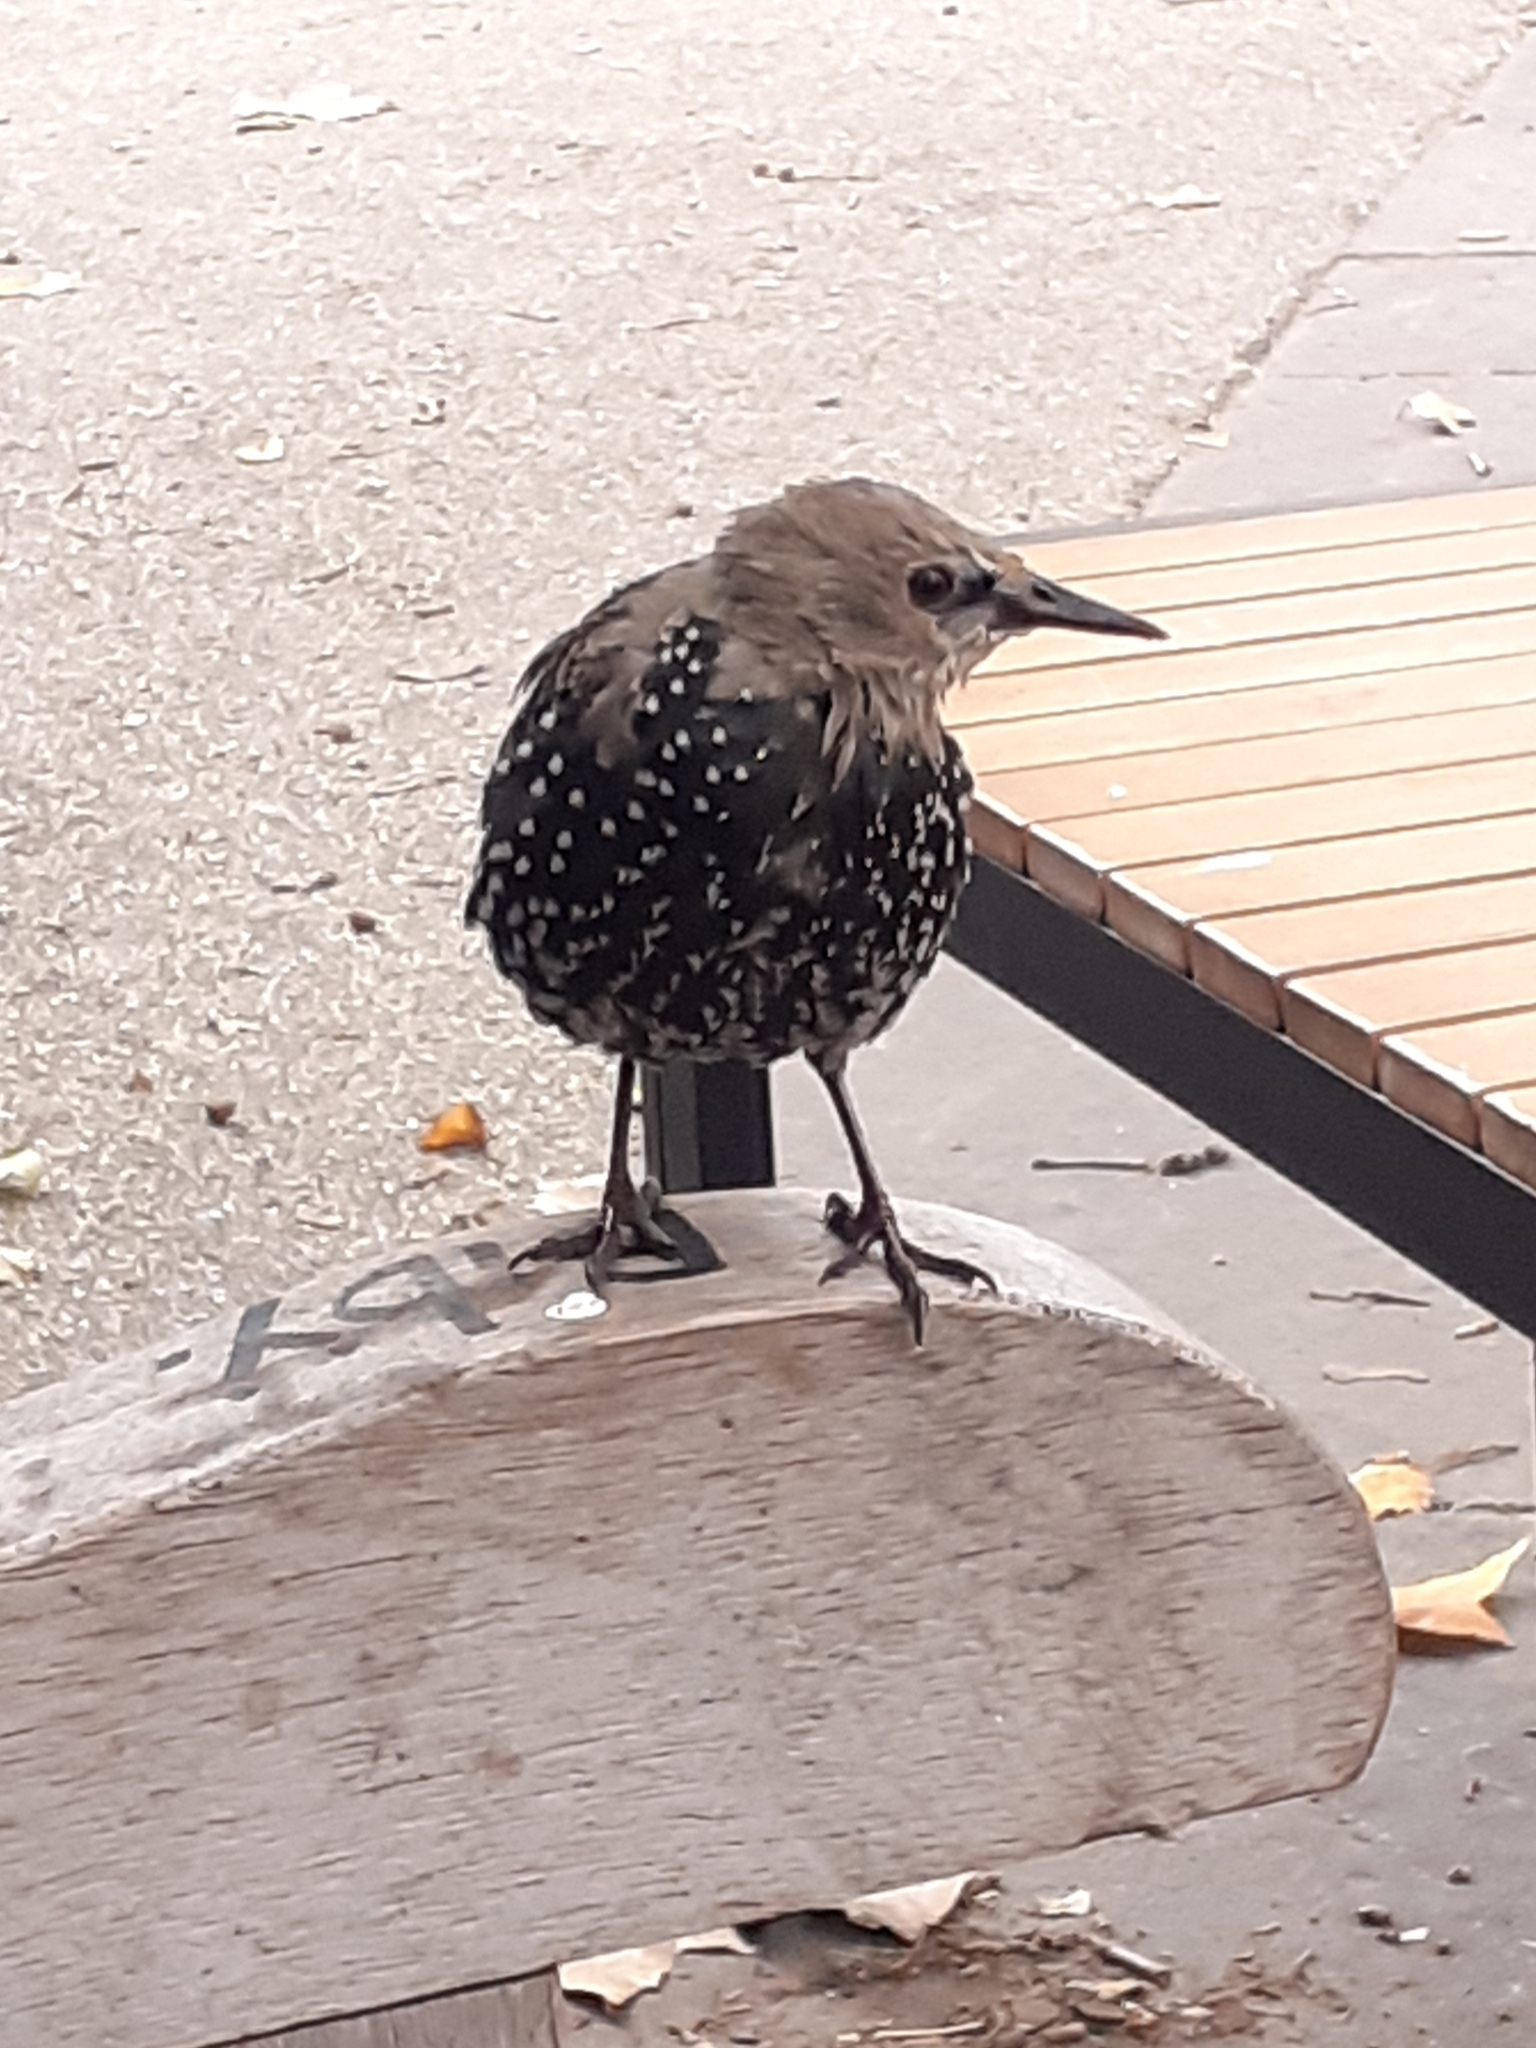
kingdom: Animalia
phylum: Chordata
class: Aves
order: Passeriformes
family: Sturnidae
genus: Sturnus
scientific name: Sturnus vulgaris
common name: Common starling
